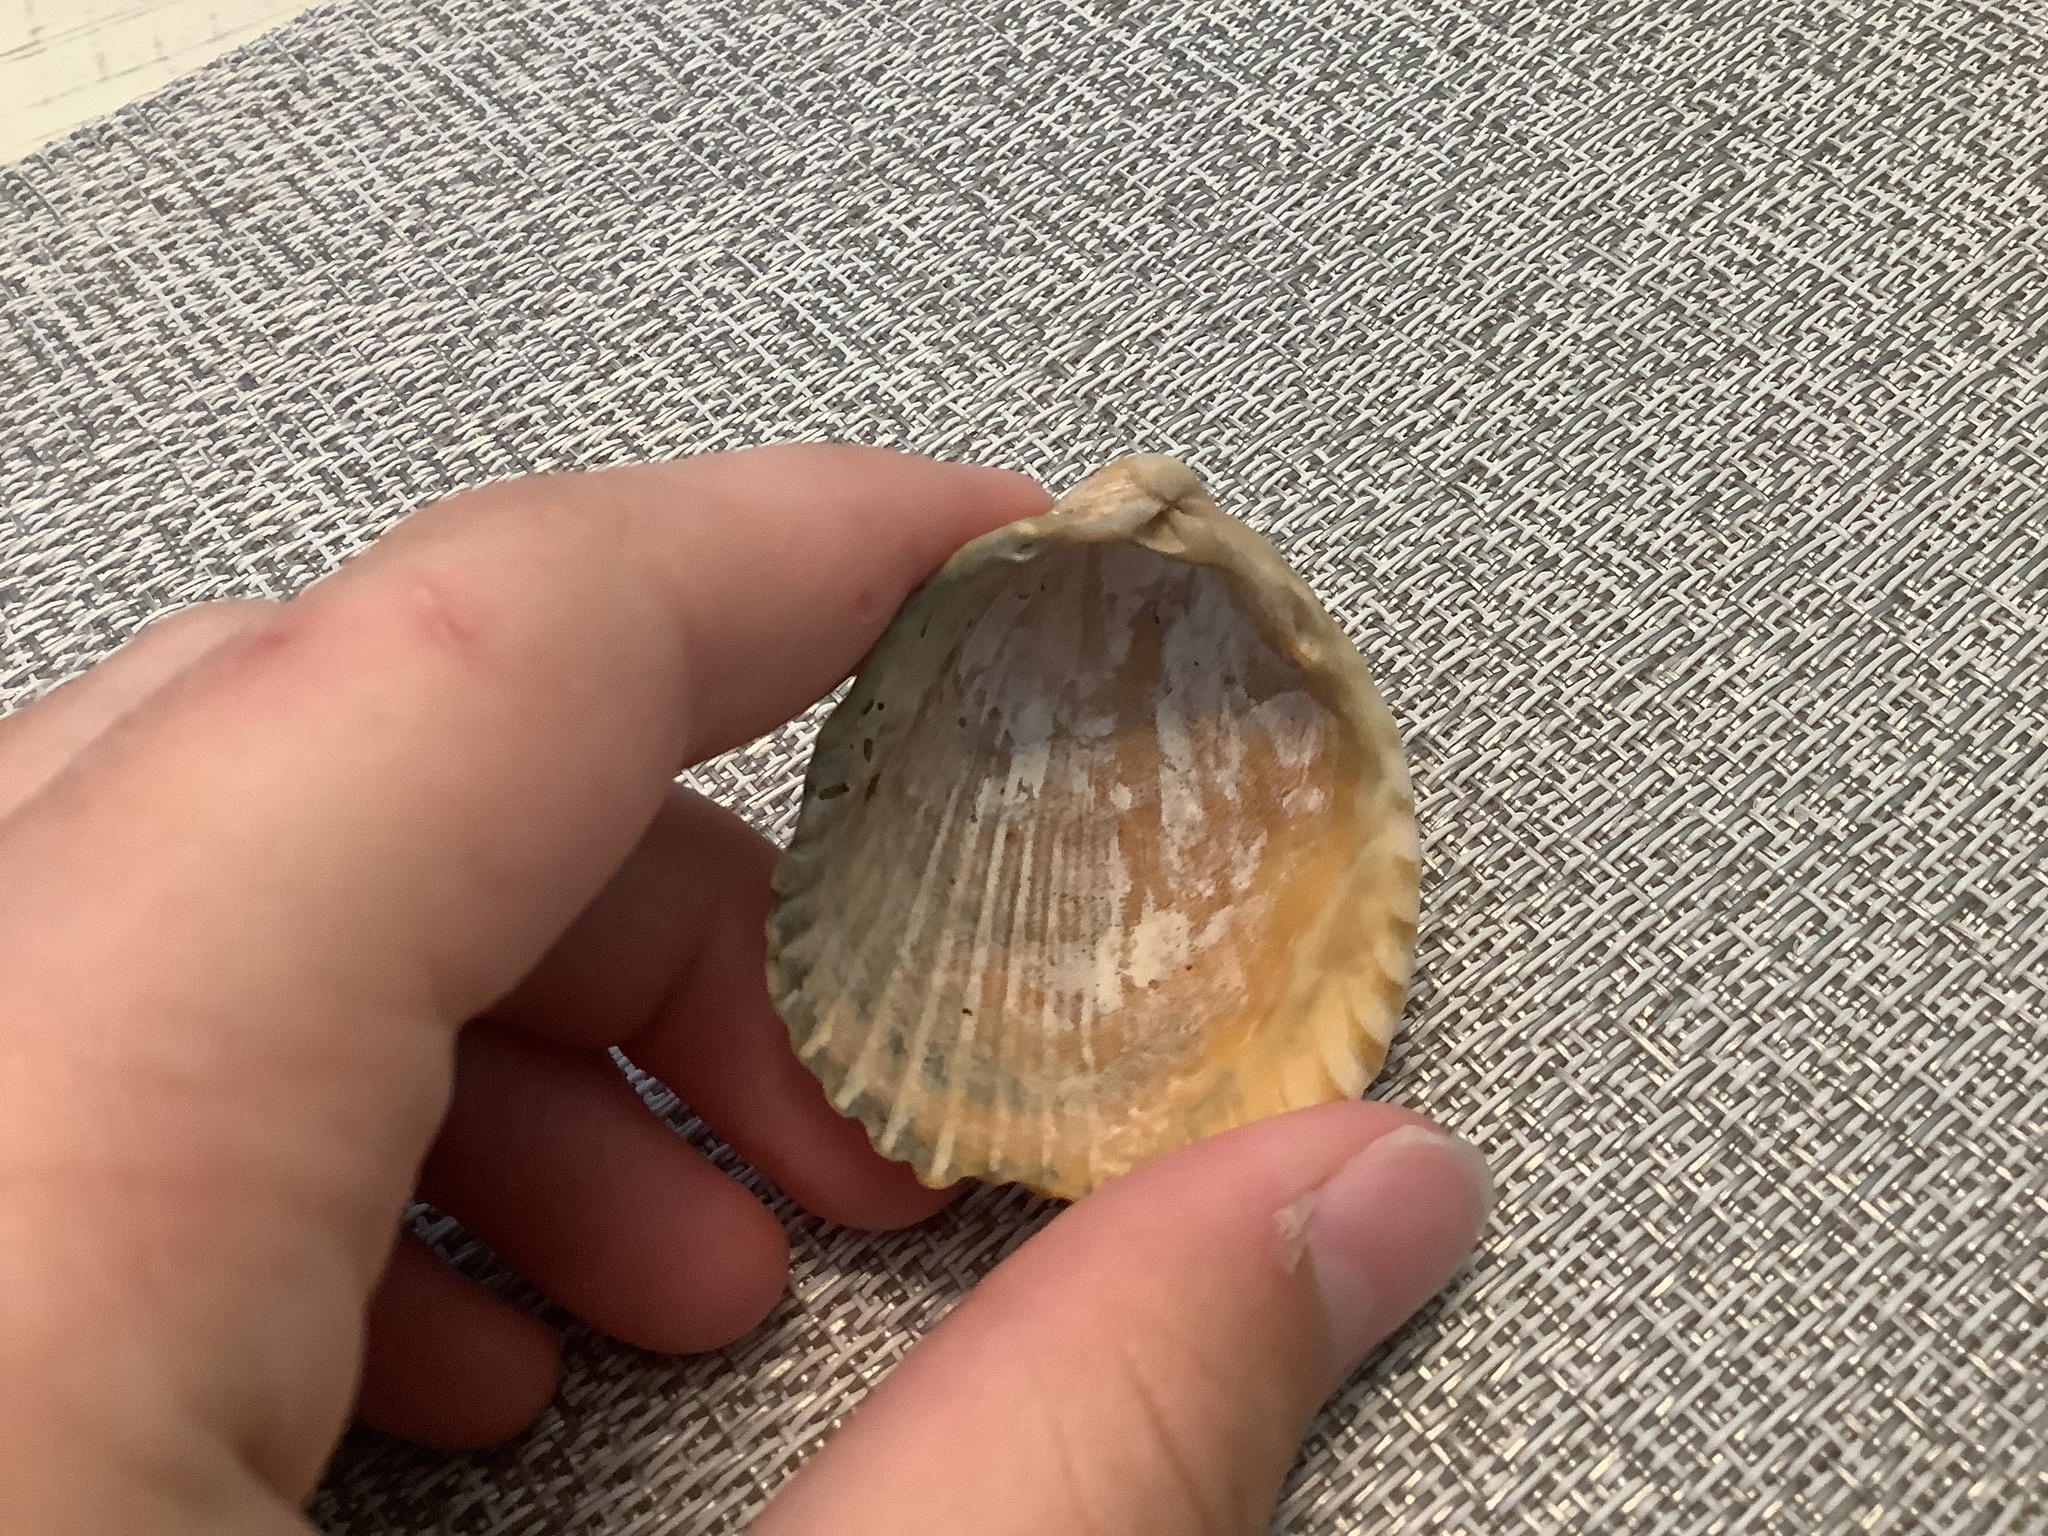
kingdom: Animalia
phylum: Mollusca
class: Bivalvia
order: Cardiida
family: Cardiidae
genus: Trachycardium
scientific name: Trachycardium egmontianum
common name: Florida pricklycockle
